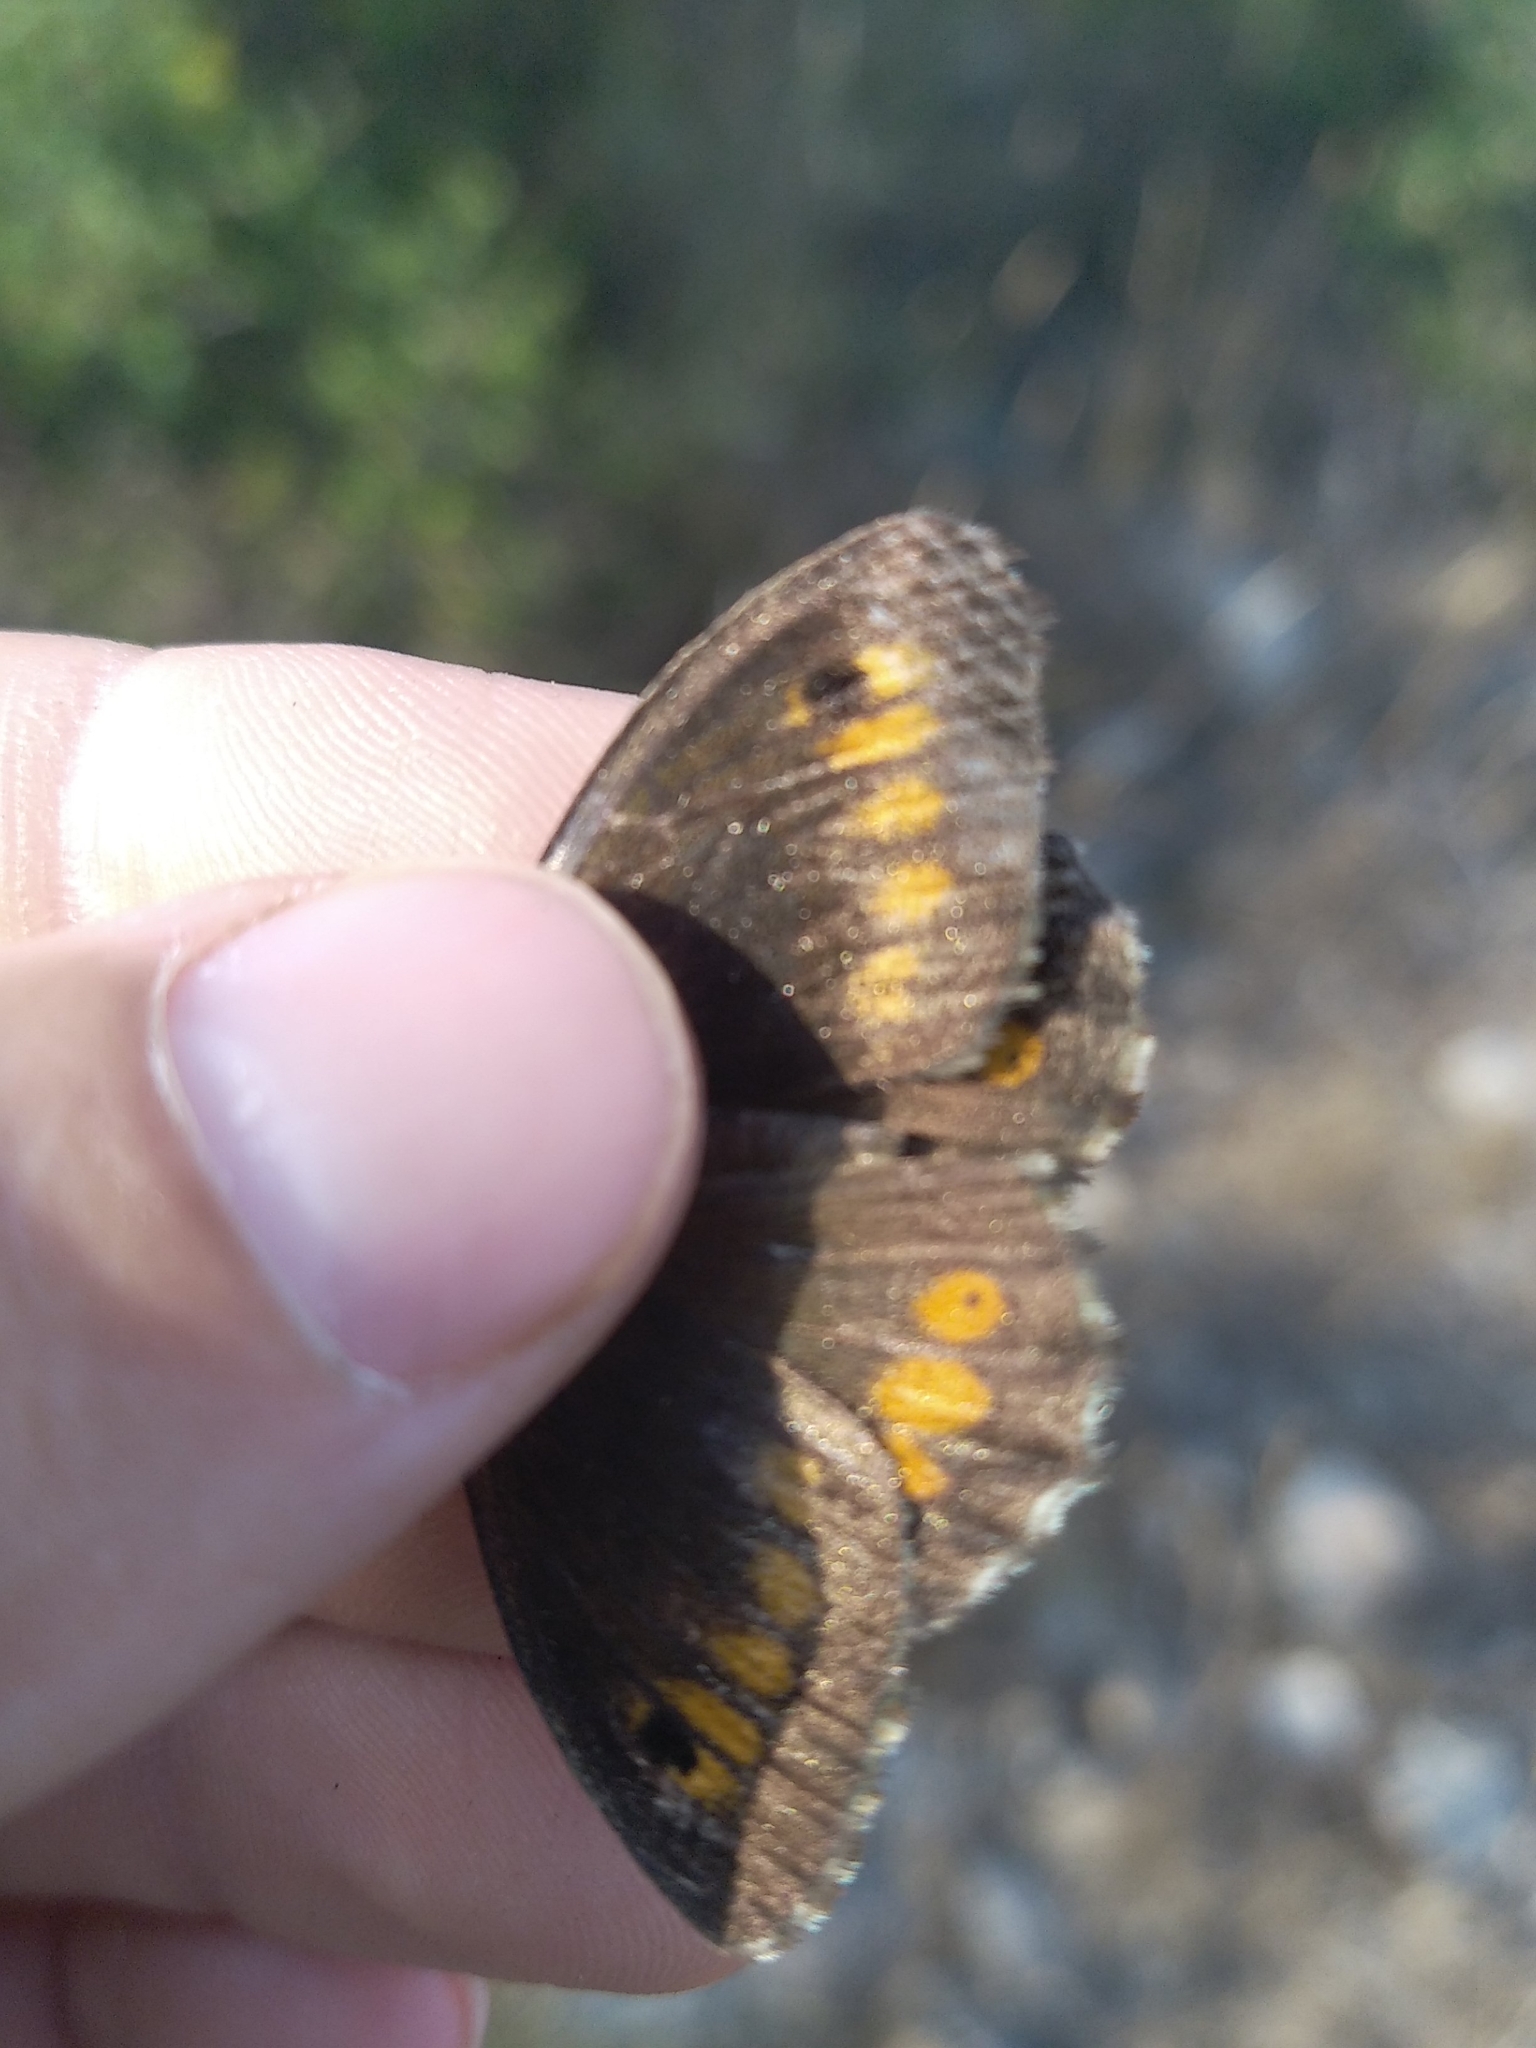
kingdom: Animalia
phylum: Arthropoda
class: Insecta
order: Lepidoptera
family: Nymphalidae
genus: Arethusana
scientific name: Arethusana arethusa
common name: False grayling
